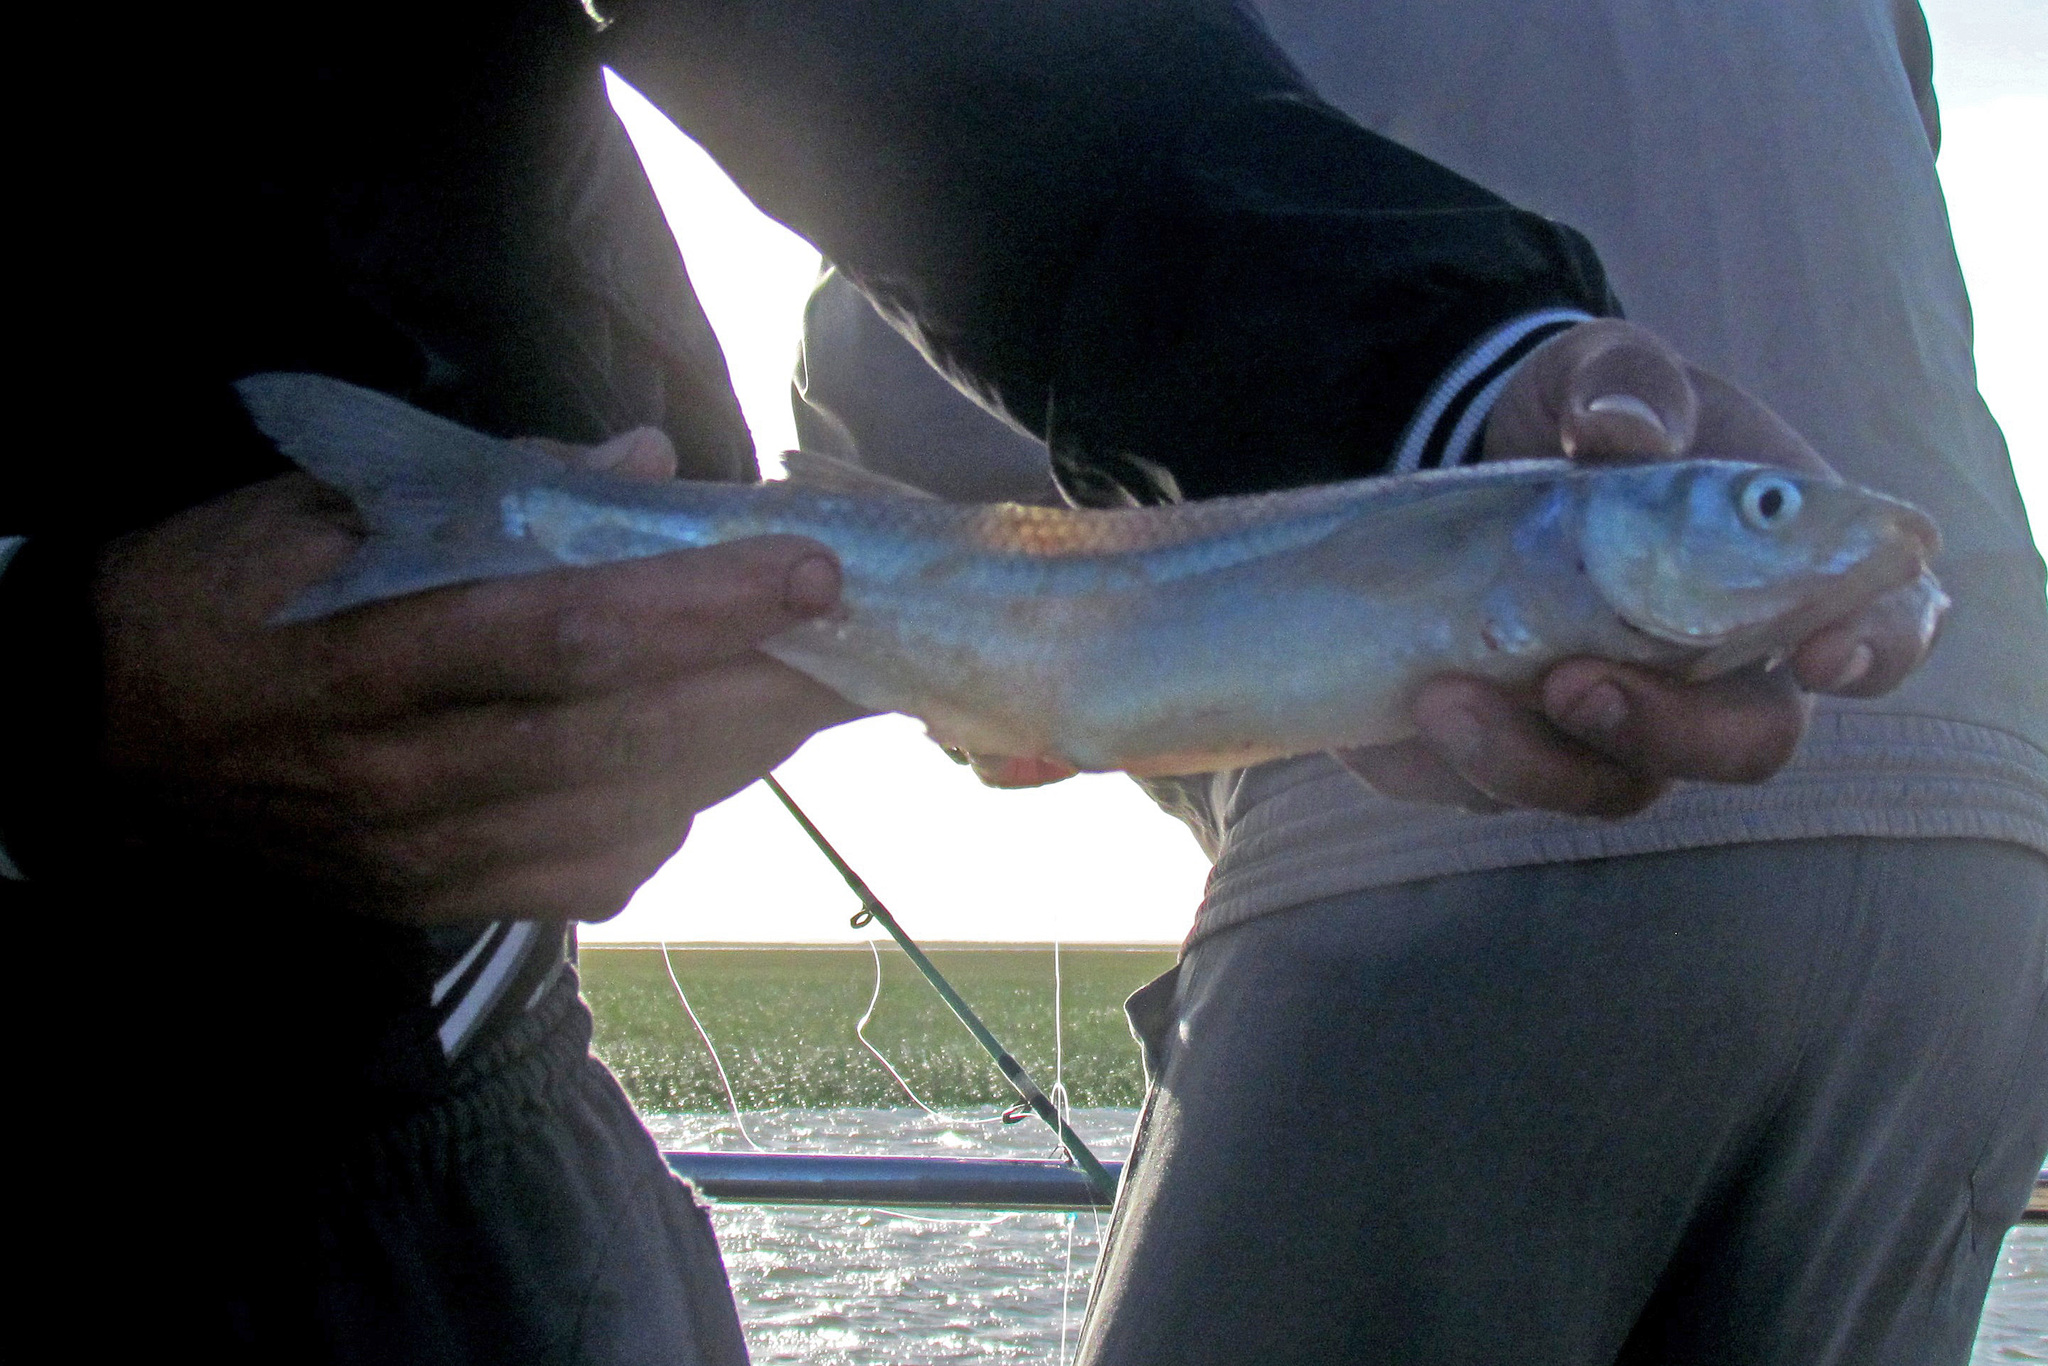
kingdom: Animalia
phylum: Chordata
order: Atheriniformes
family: Atherinopsidae
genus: Odontesthes
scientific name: Odontesthes argentinensis
